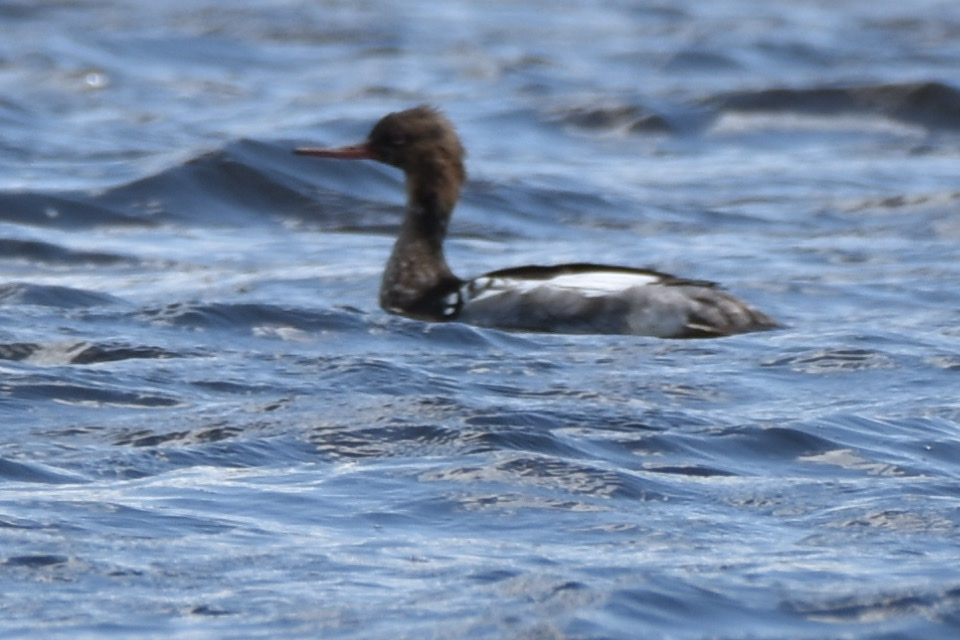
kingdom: Animalia
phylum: Chordata
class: Aves
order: Anseriformes
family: Anatidae
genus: Mergus
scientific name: Mergus serrator
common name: Red-breasted merganser
